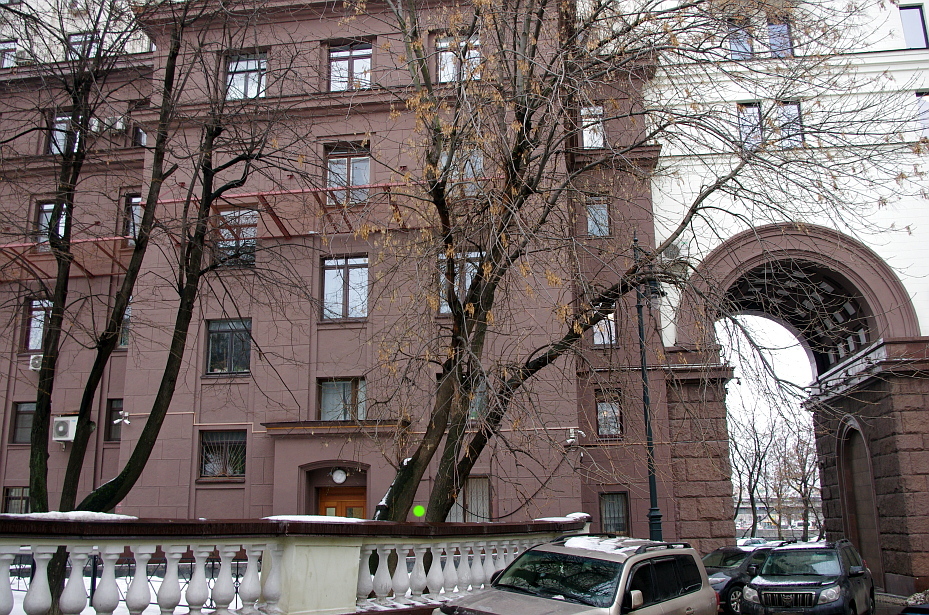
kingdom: Plantae
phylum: Tracheophyta
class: Magnoliopsida
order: Lamiales
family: Oleaceae
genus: Fraxinus
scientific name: Fraxinus pennsylvanica
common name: Green ash
